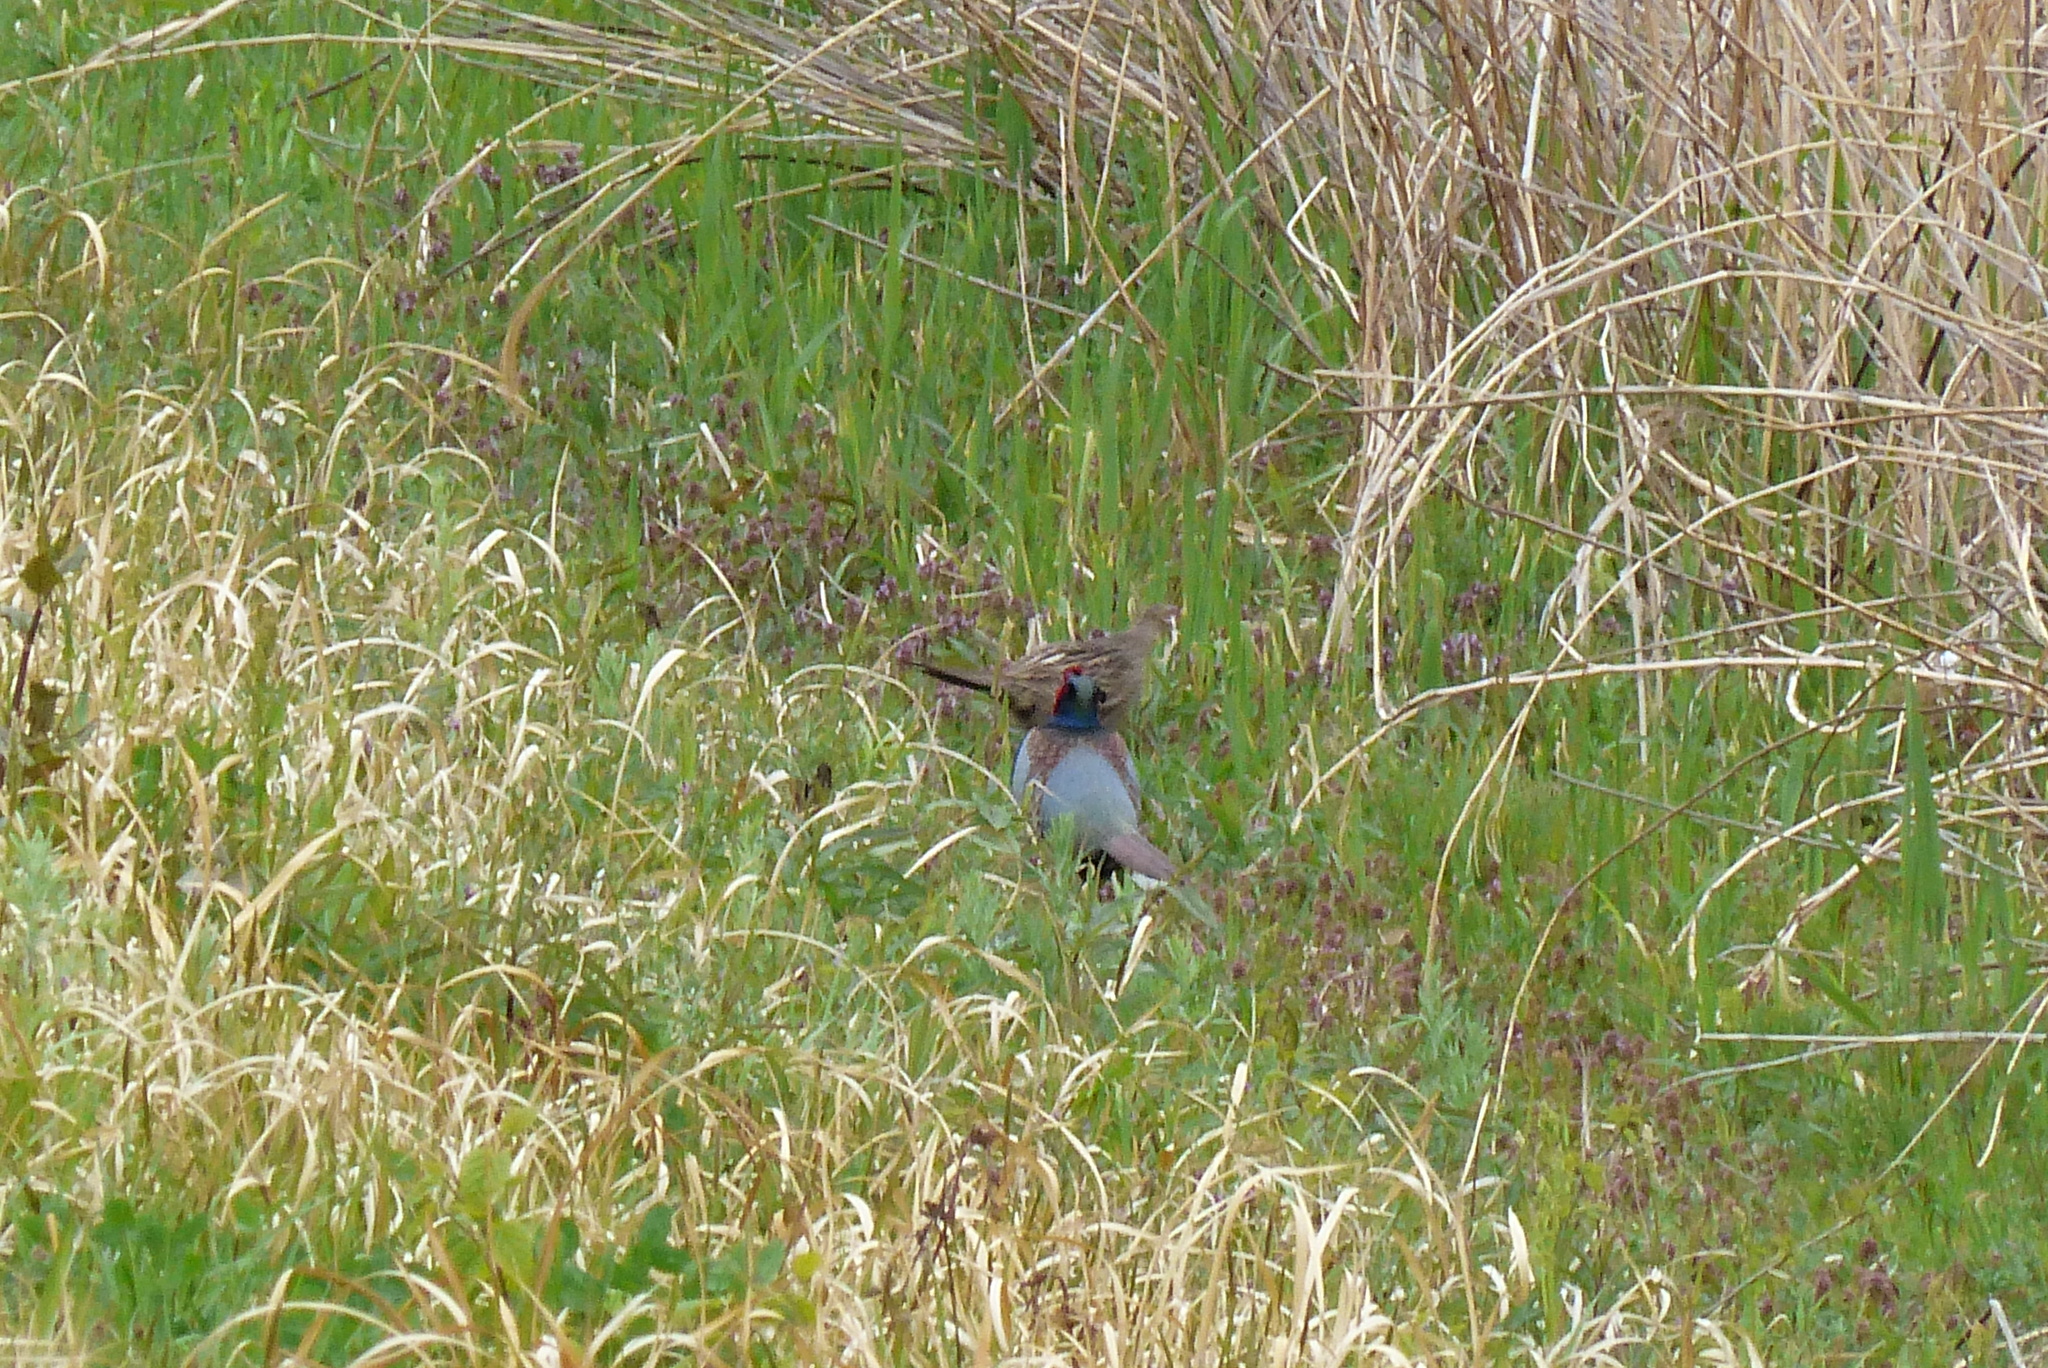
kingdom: Animalia
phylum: Chordata
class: Aves
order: Galliformes
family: Phasianidae
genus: Phasianus
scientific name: Phasianus versicolor
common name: Green pheasant
